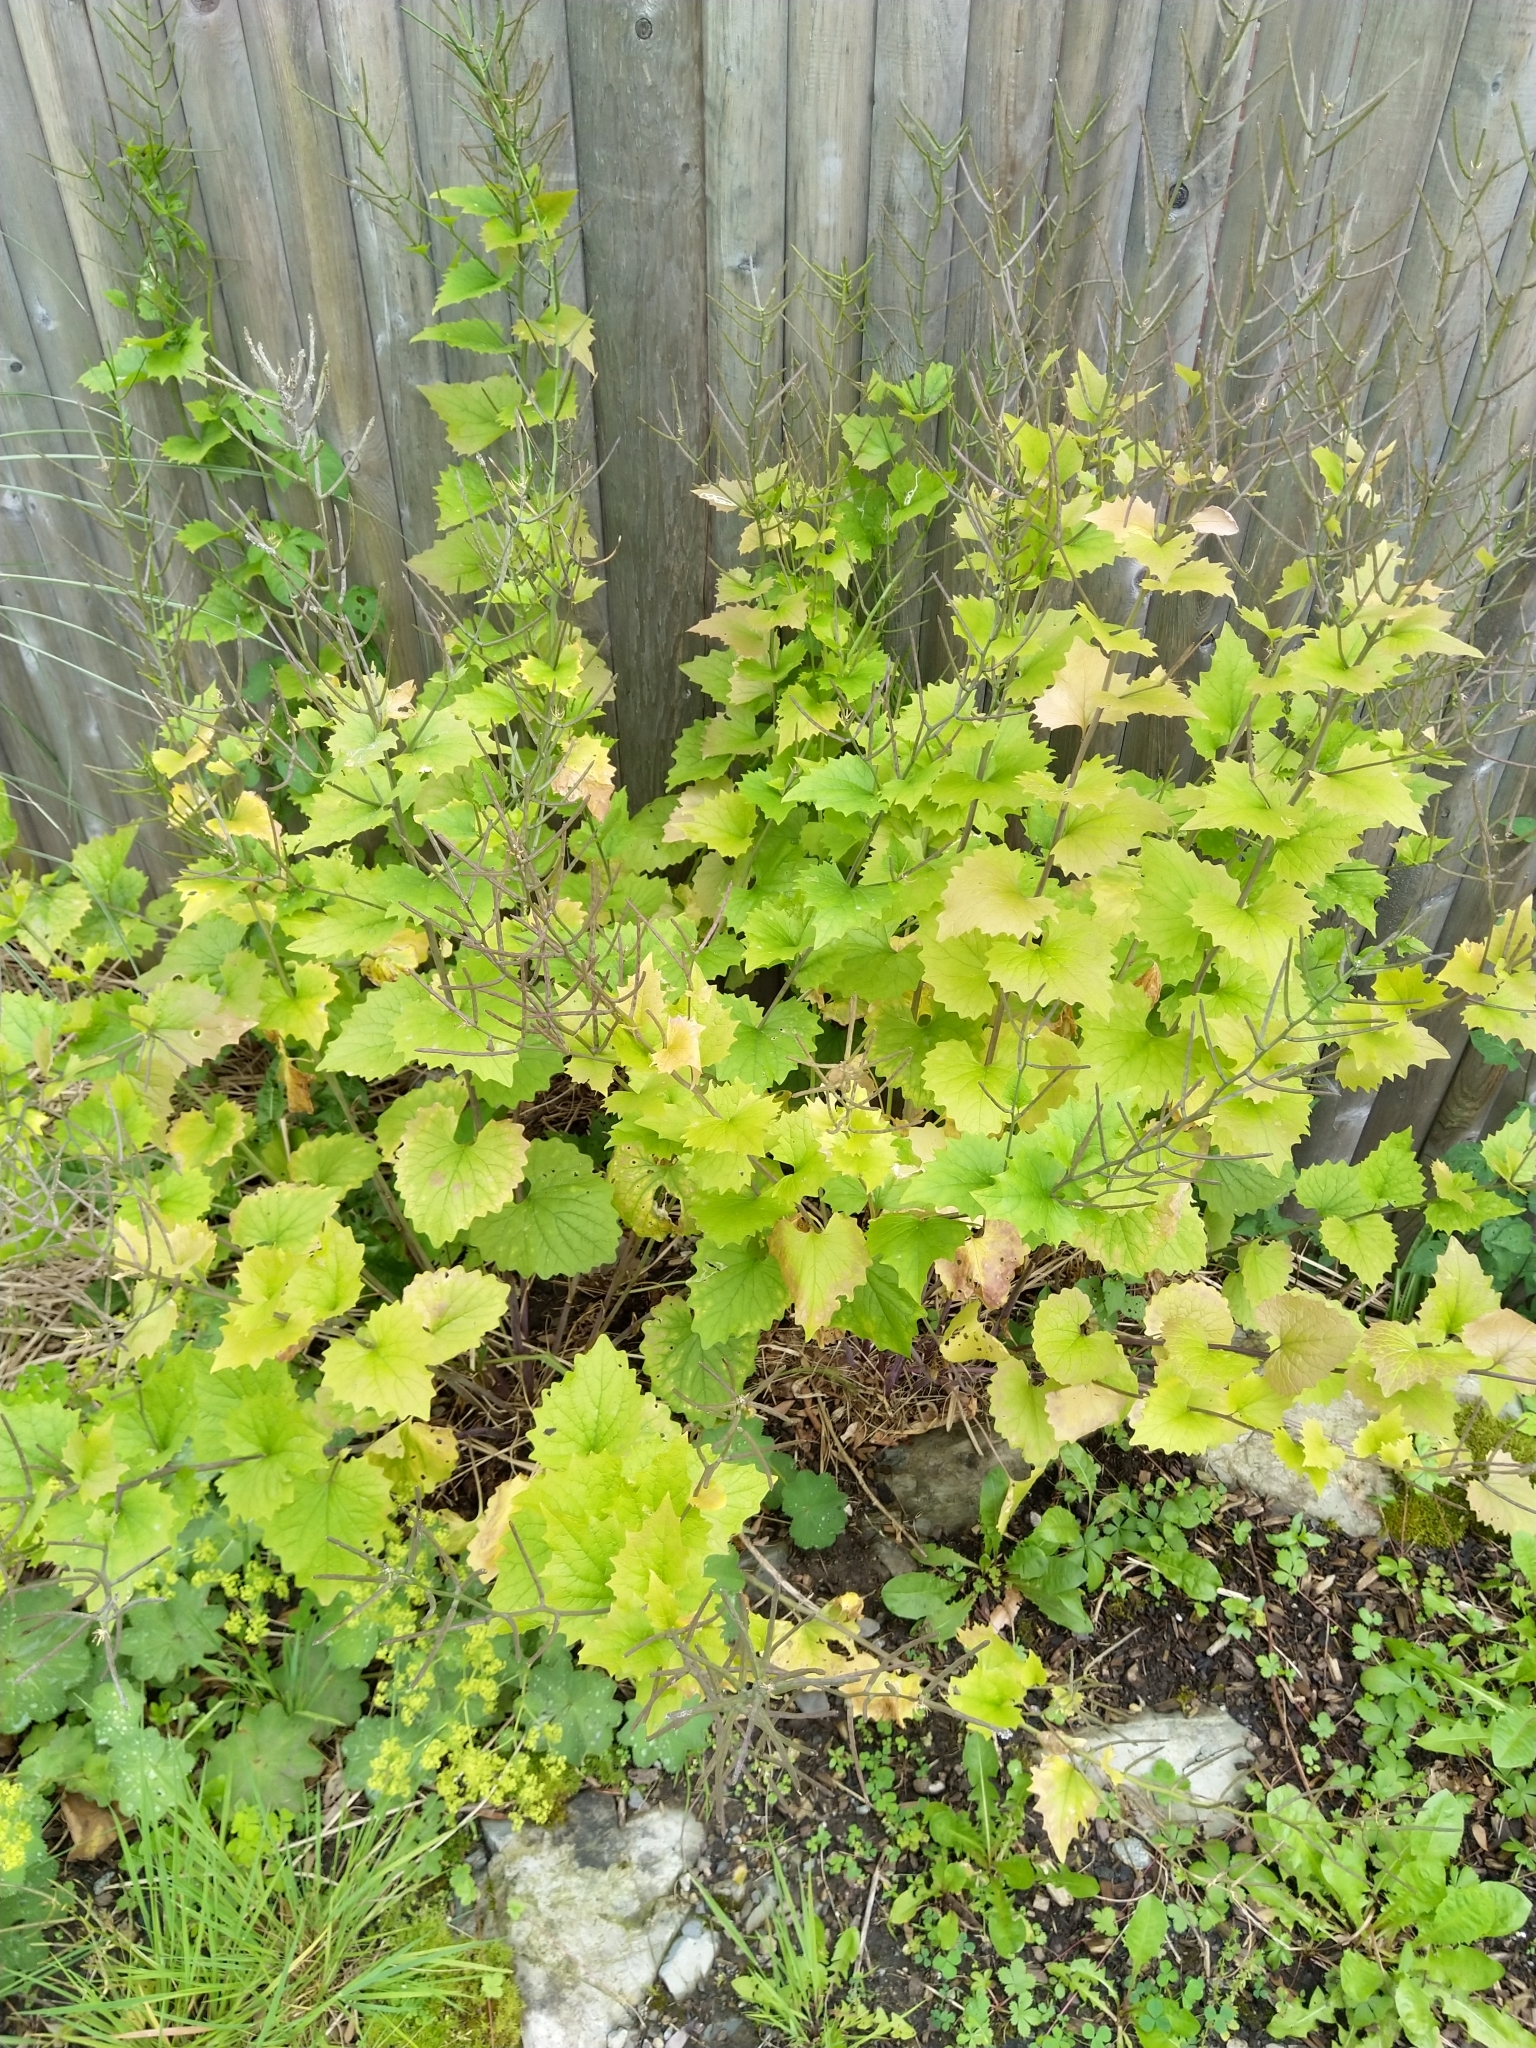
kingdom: Plantae
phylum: Tracheophyta
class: Magnoliopsida
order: Brassicales
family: Brassicaceae
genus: Alliaria
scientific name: Alliaria petiolata
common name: Garlic mustard
